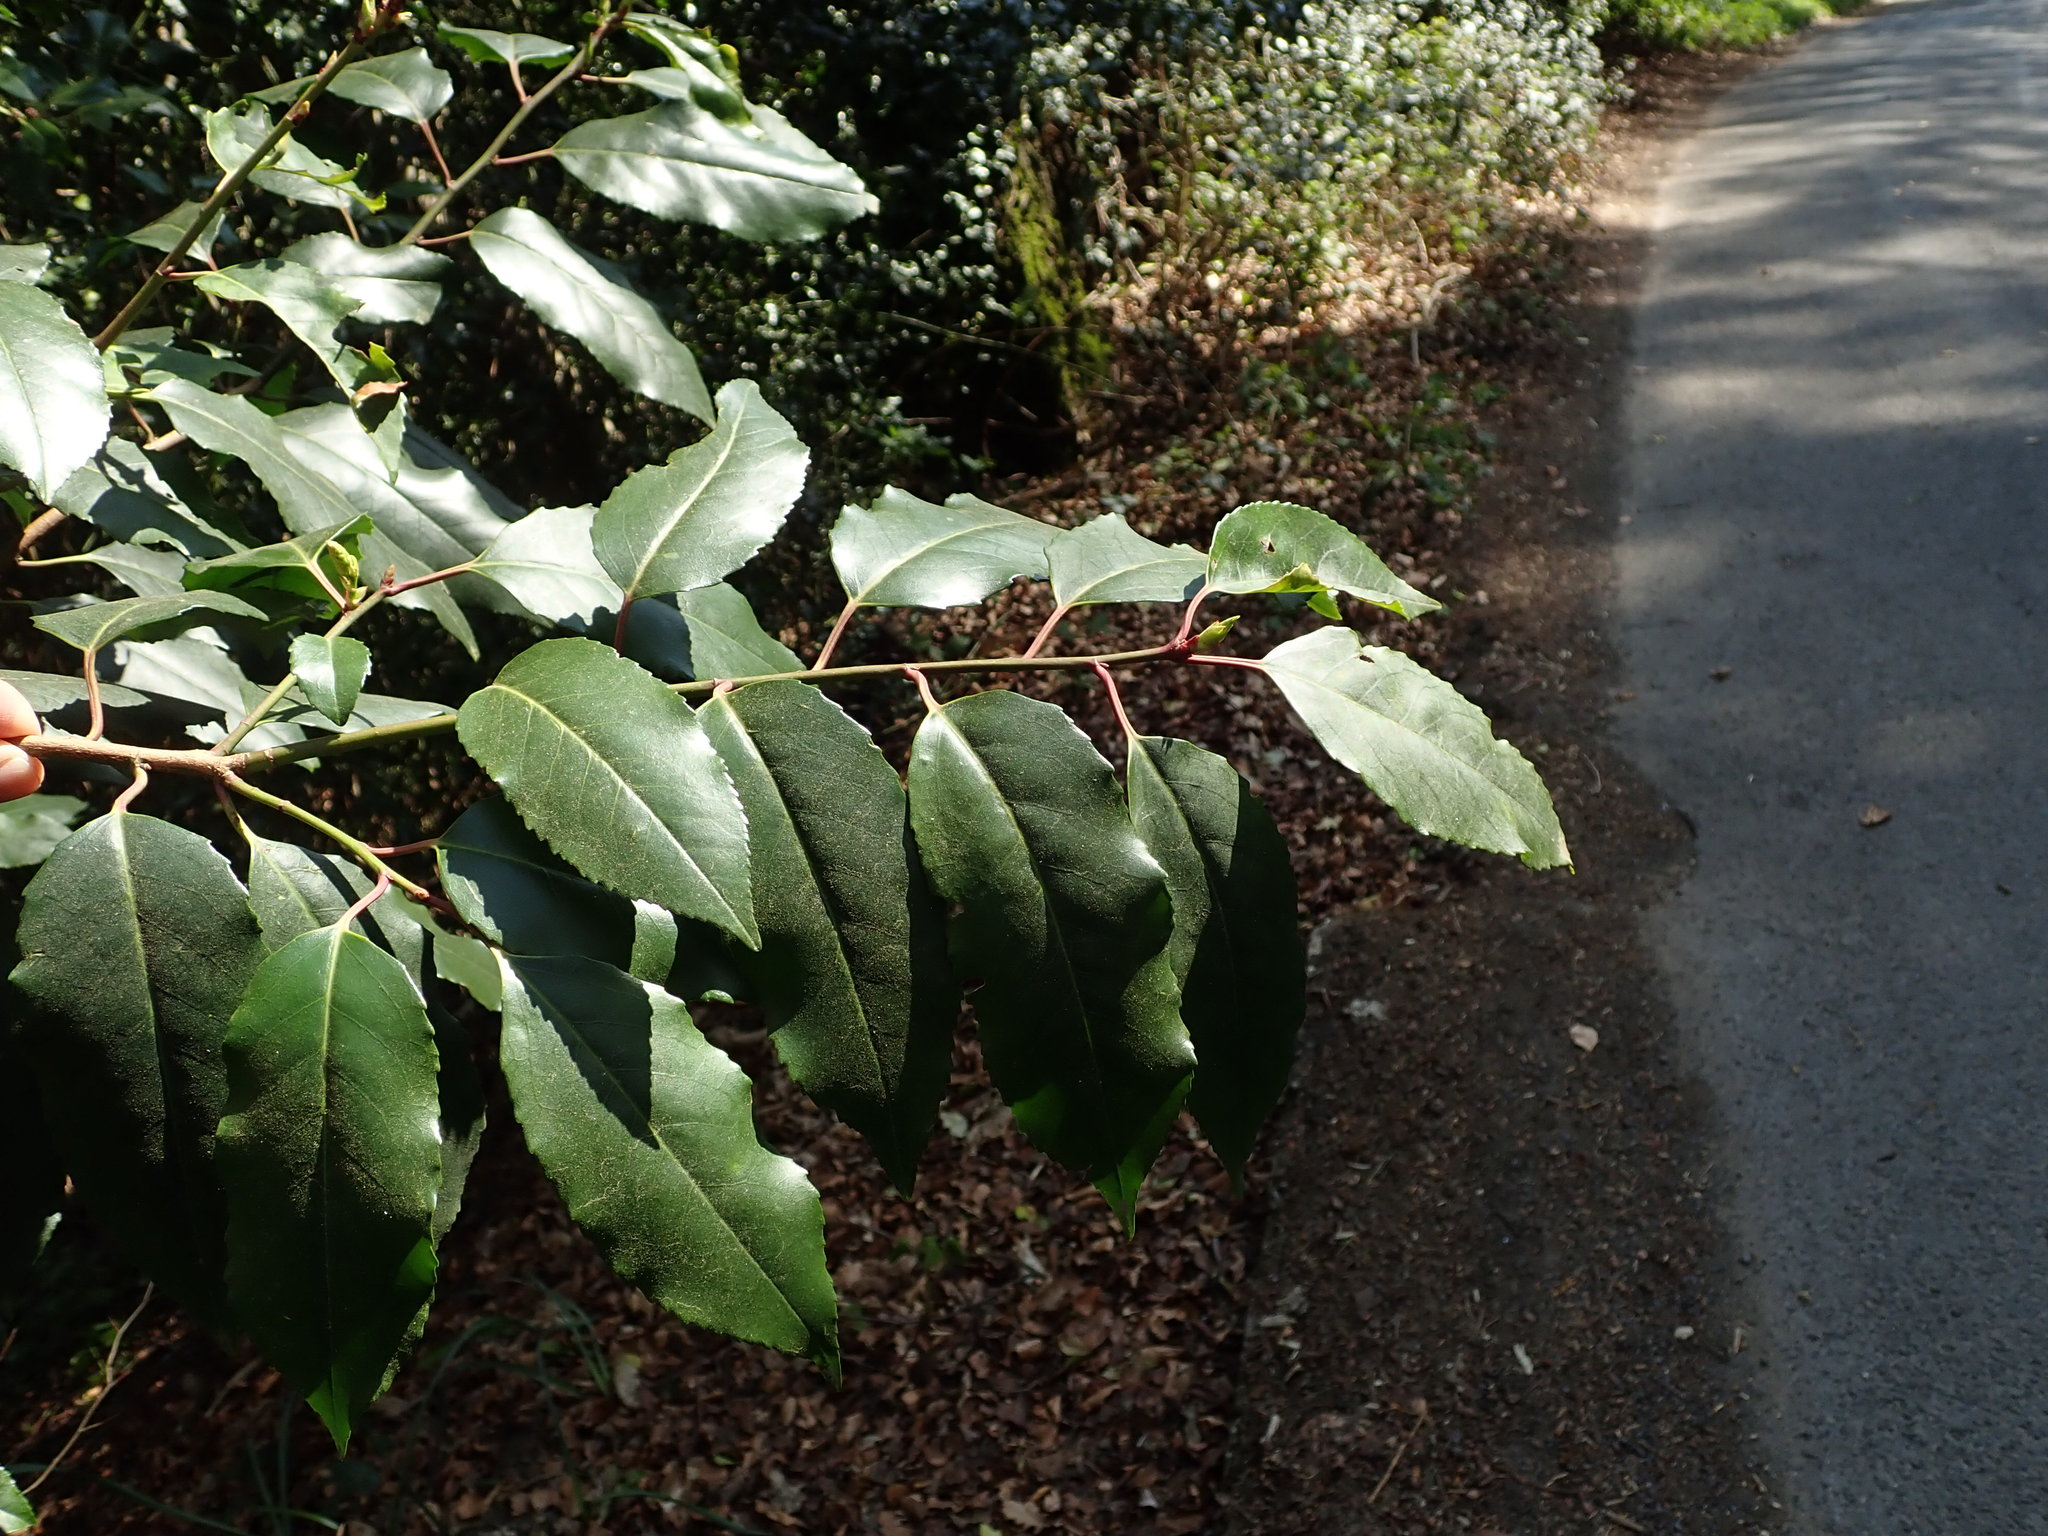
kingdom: Plantae
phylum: Tracheophyta
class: Magnoliopsida
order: Rosales
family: Rosaceae
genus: Prunus
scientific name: Prunus lusitanica
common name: Portugal laurel
